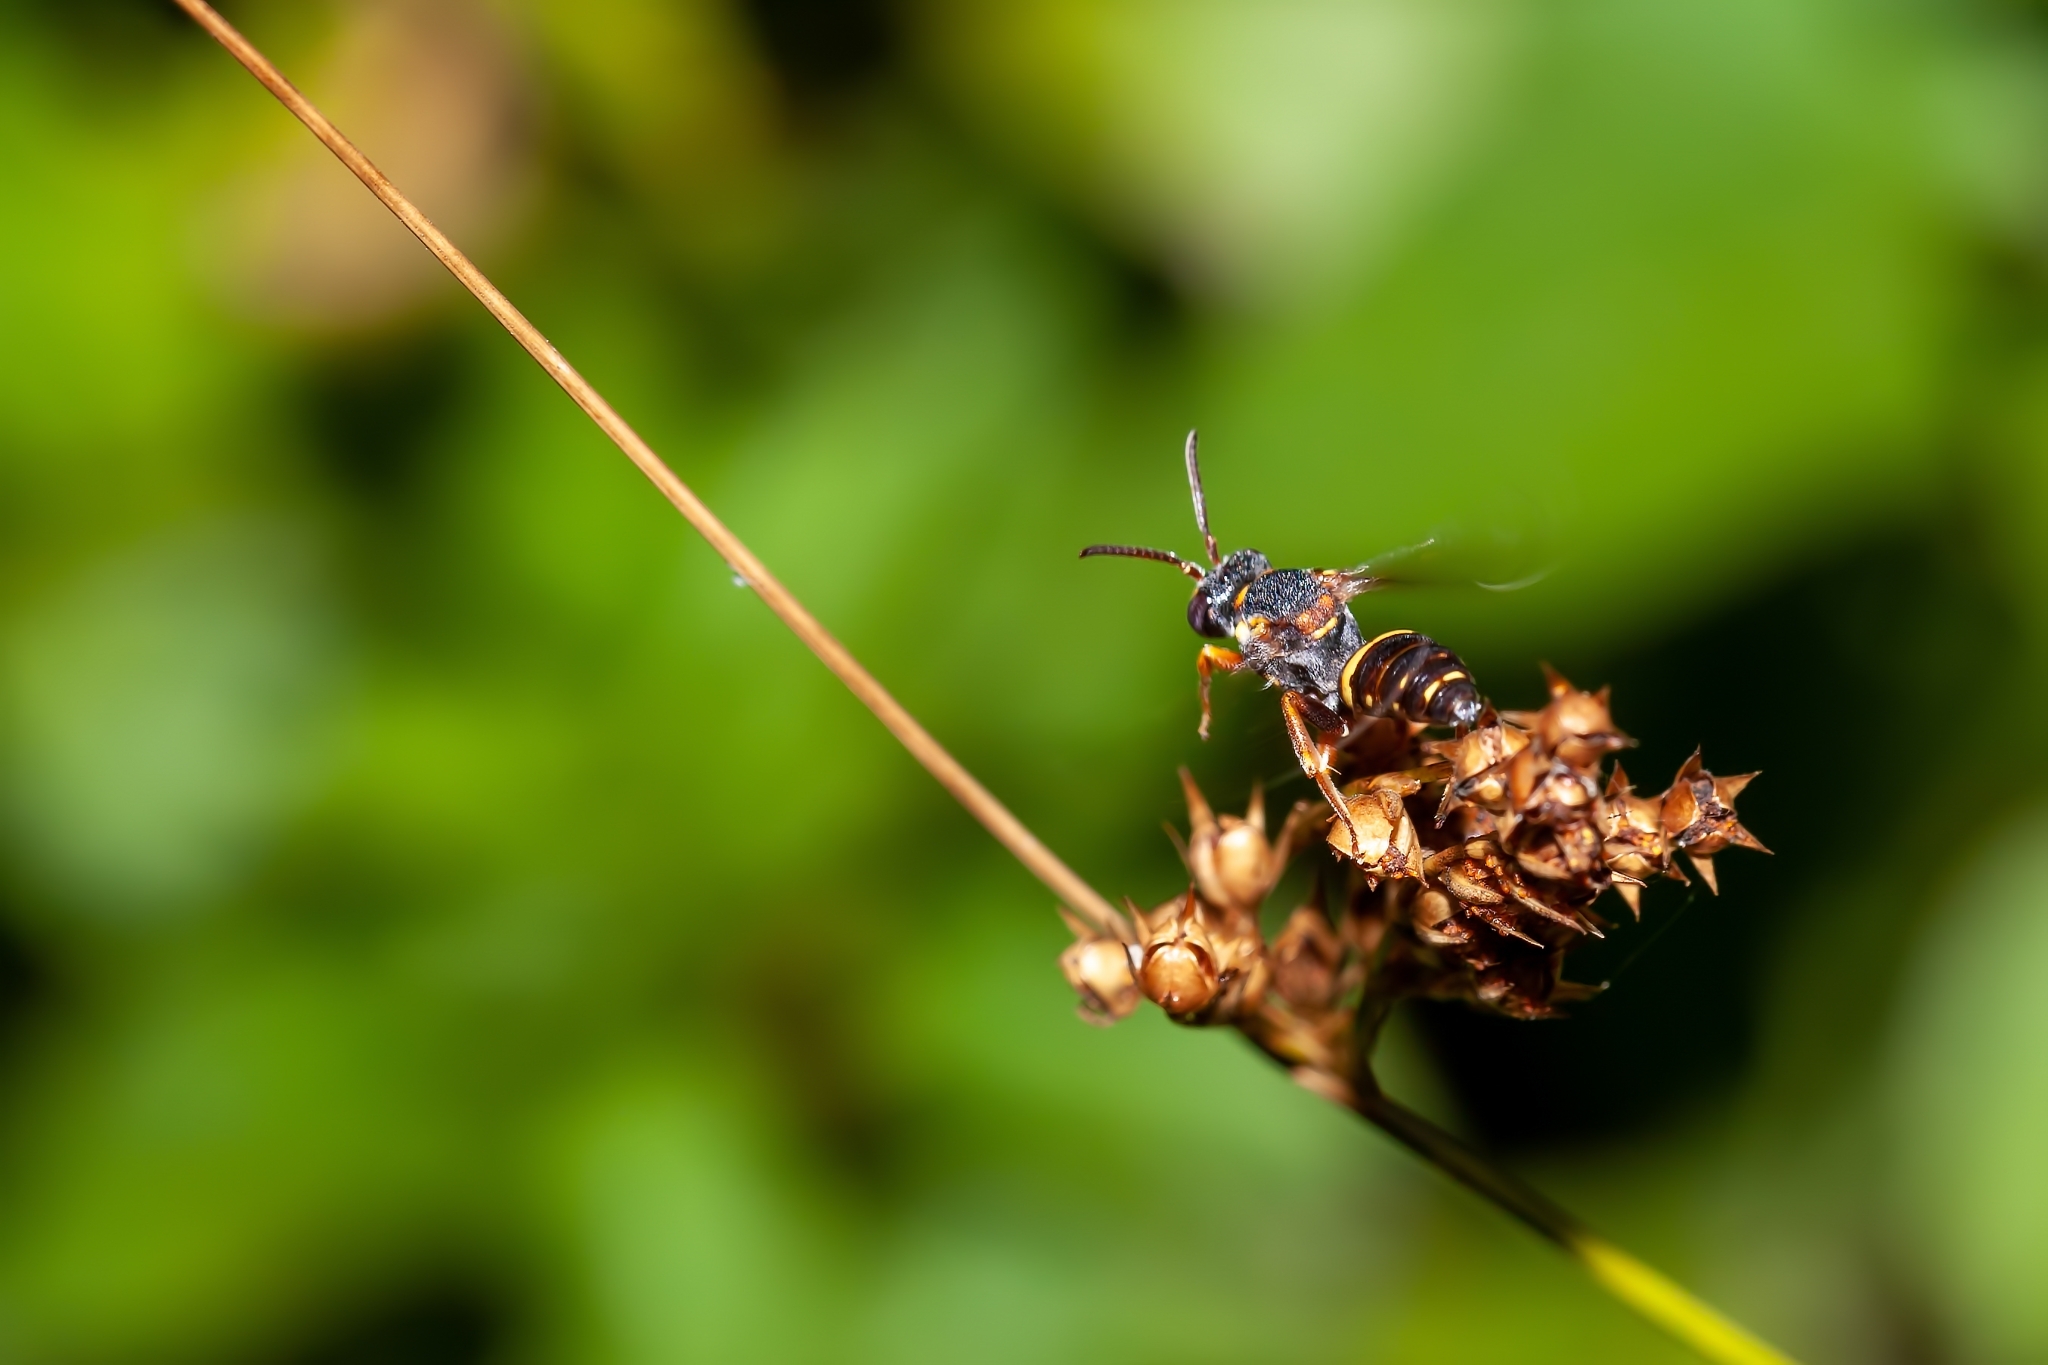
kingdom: Animalia
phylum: Arthropoda
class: Insecta
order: Hymenoptera
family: Apidae
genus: Nomada
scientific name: Nomada fervida
